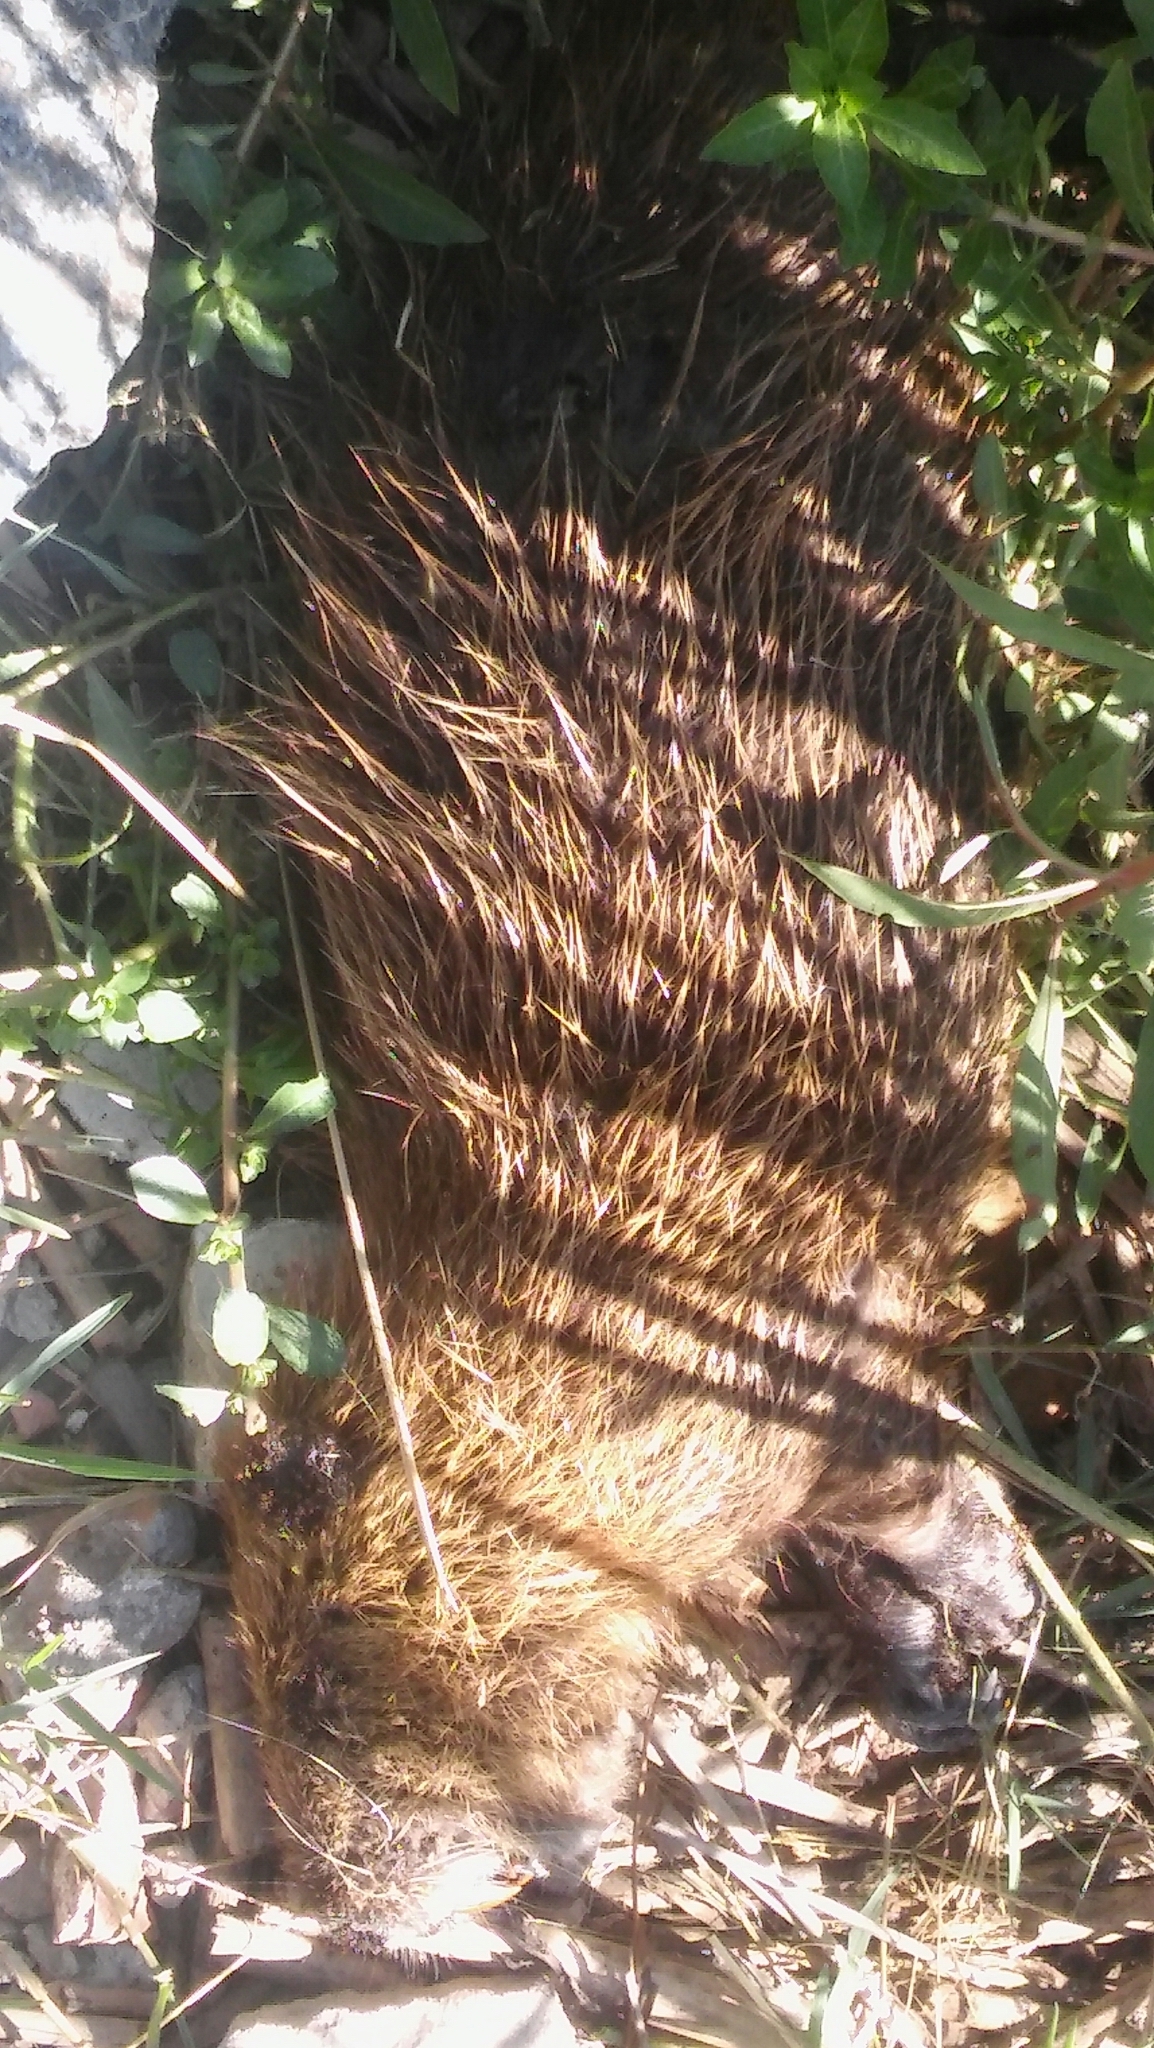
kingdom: Animalia
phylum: Chordata
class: Mammalia
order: Rodentia
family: Myocastoridae
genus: Myocastor
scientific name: Myocastor coypus
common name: Coypu
